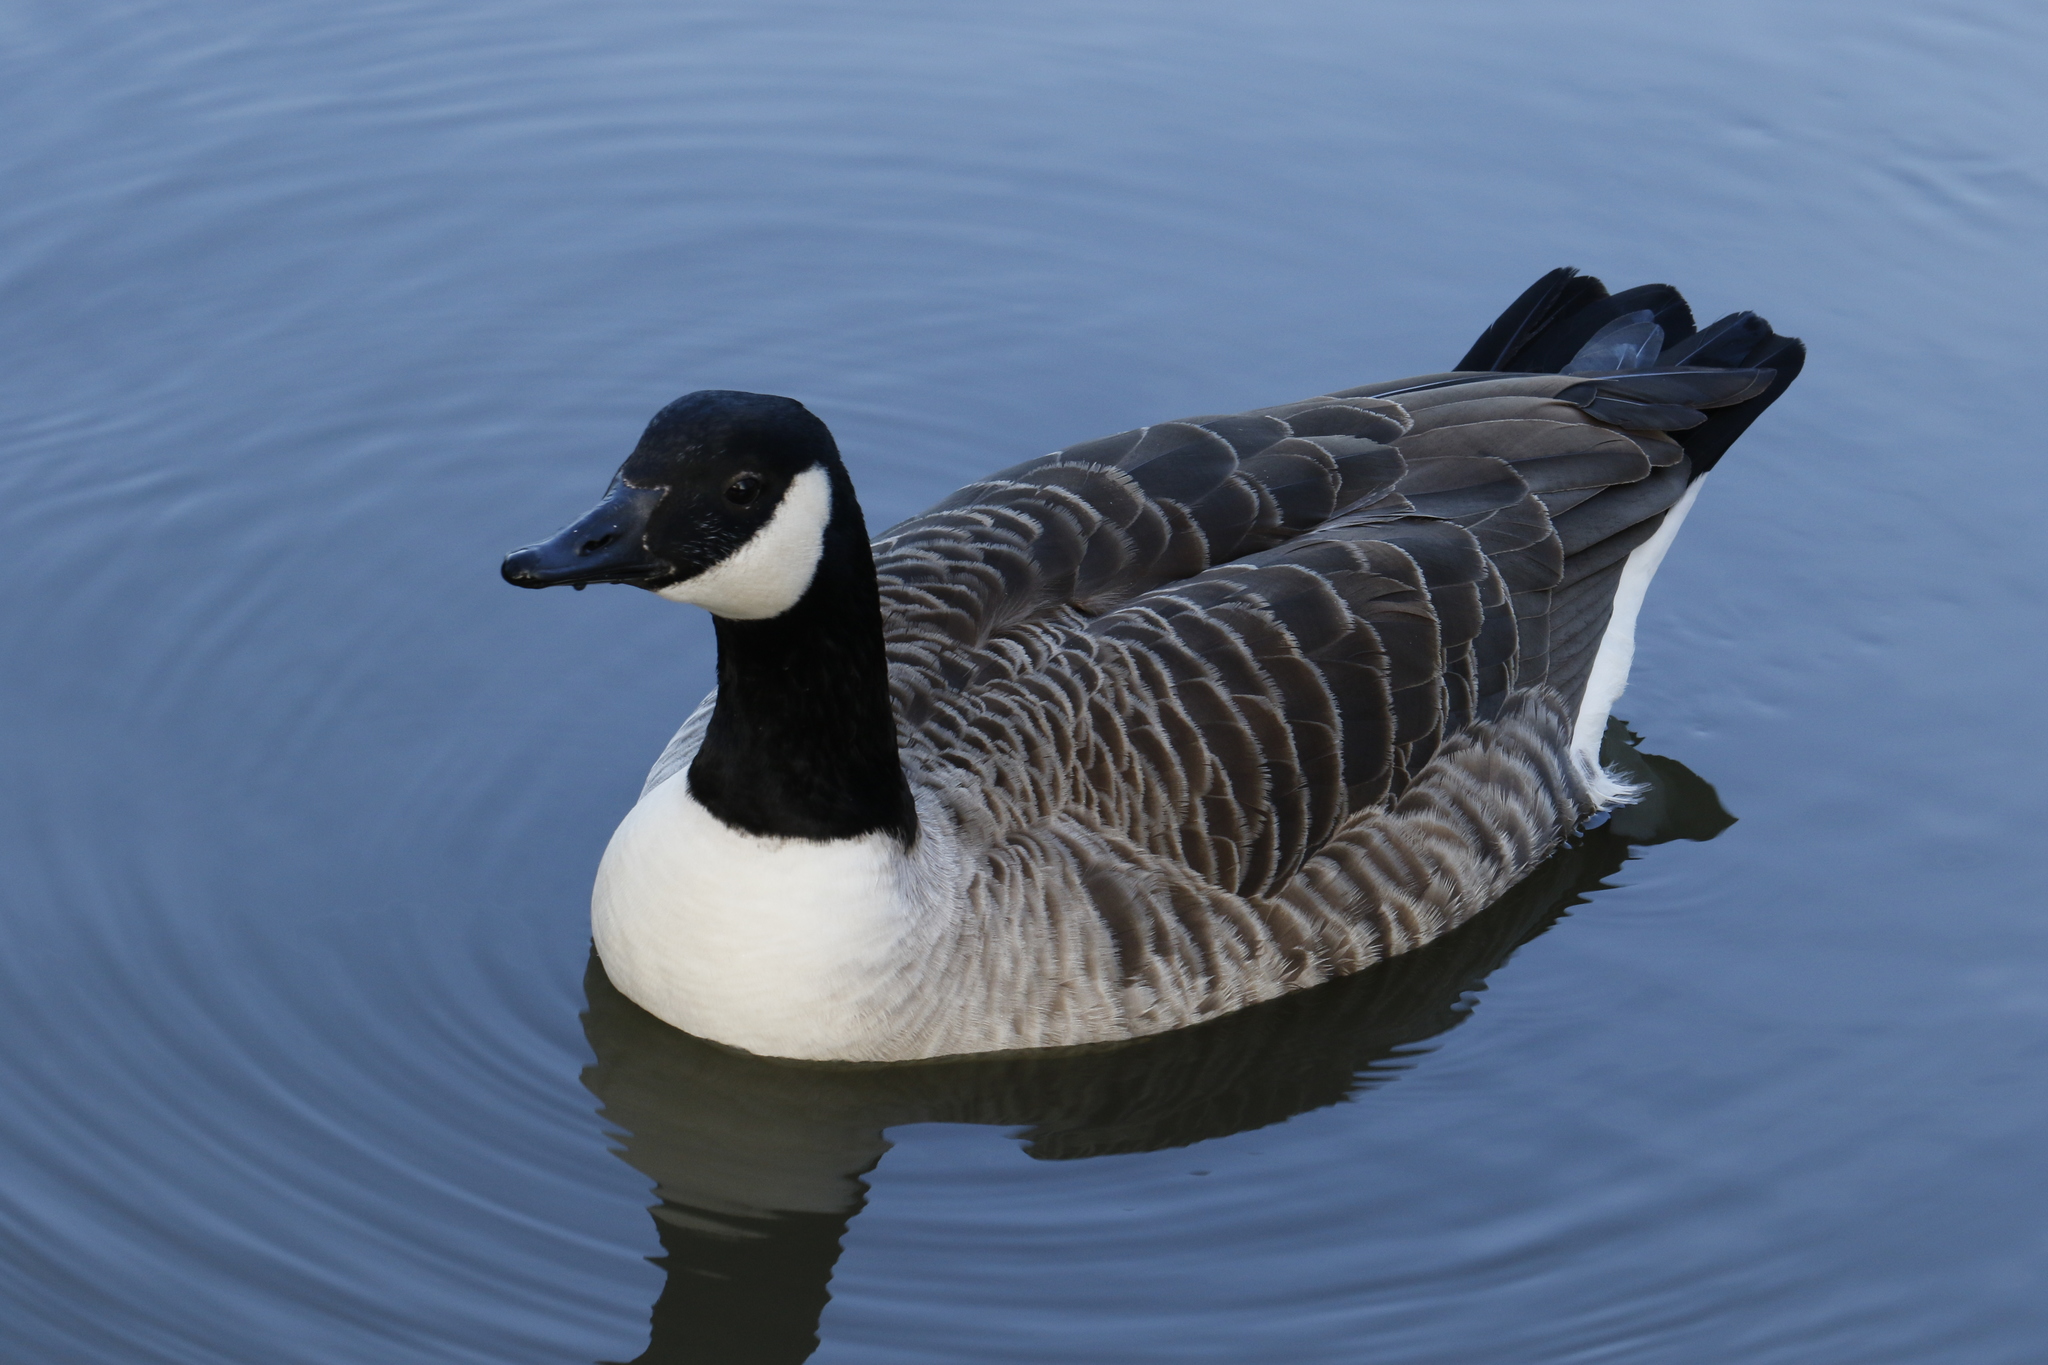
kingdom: Animalia
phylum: Chordata
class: Aves
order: Anseriformes
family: Anatidae
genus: Branta
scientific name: Branta canadensis
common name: Canada goose
